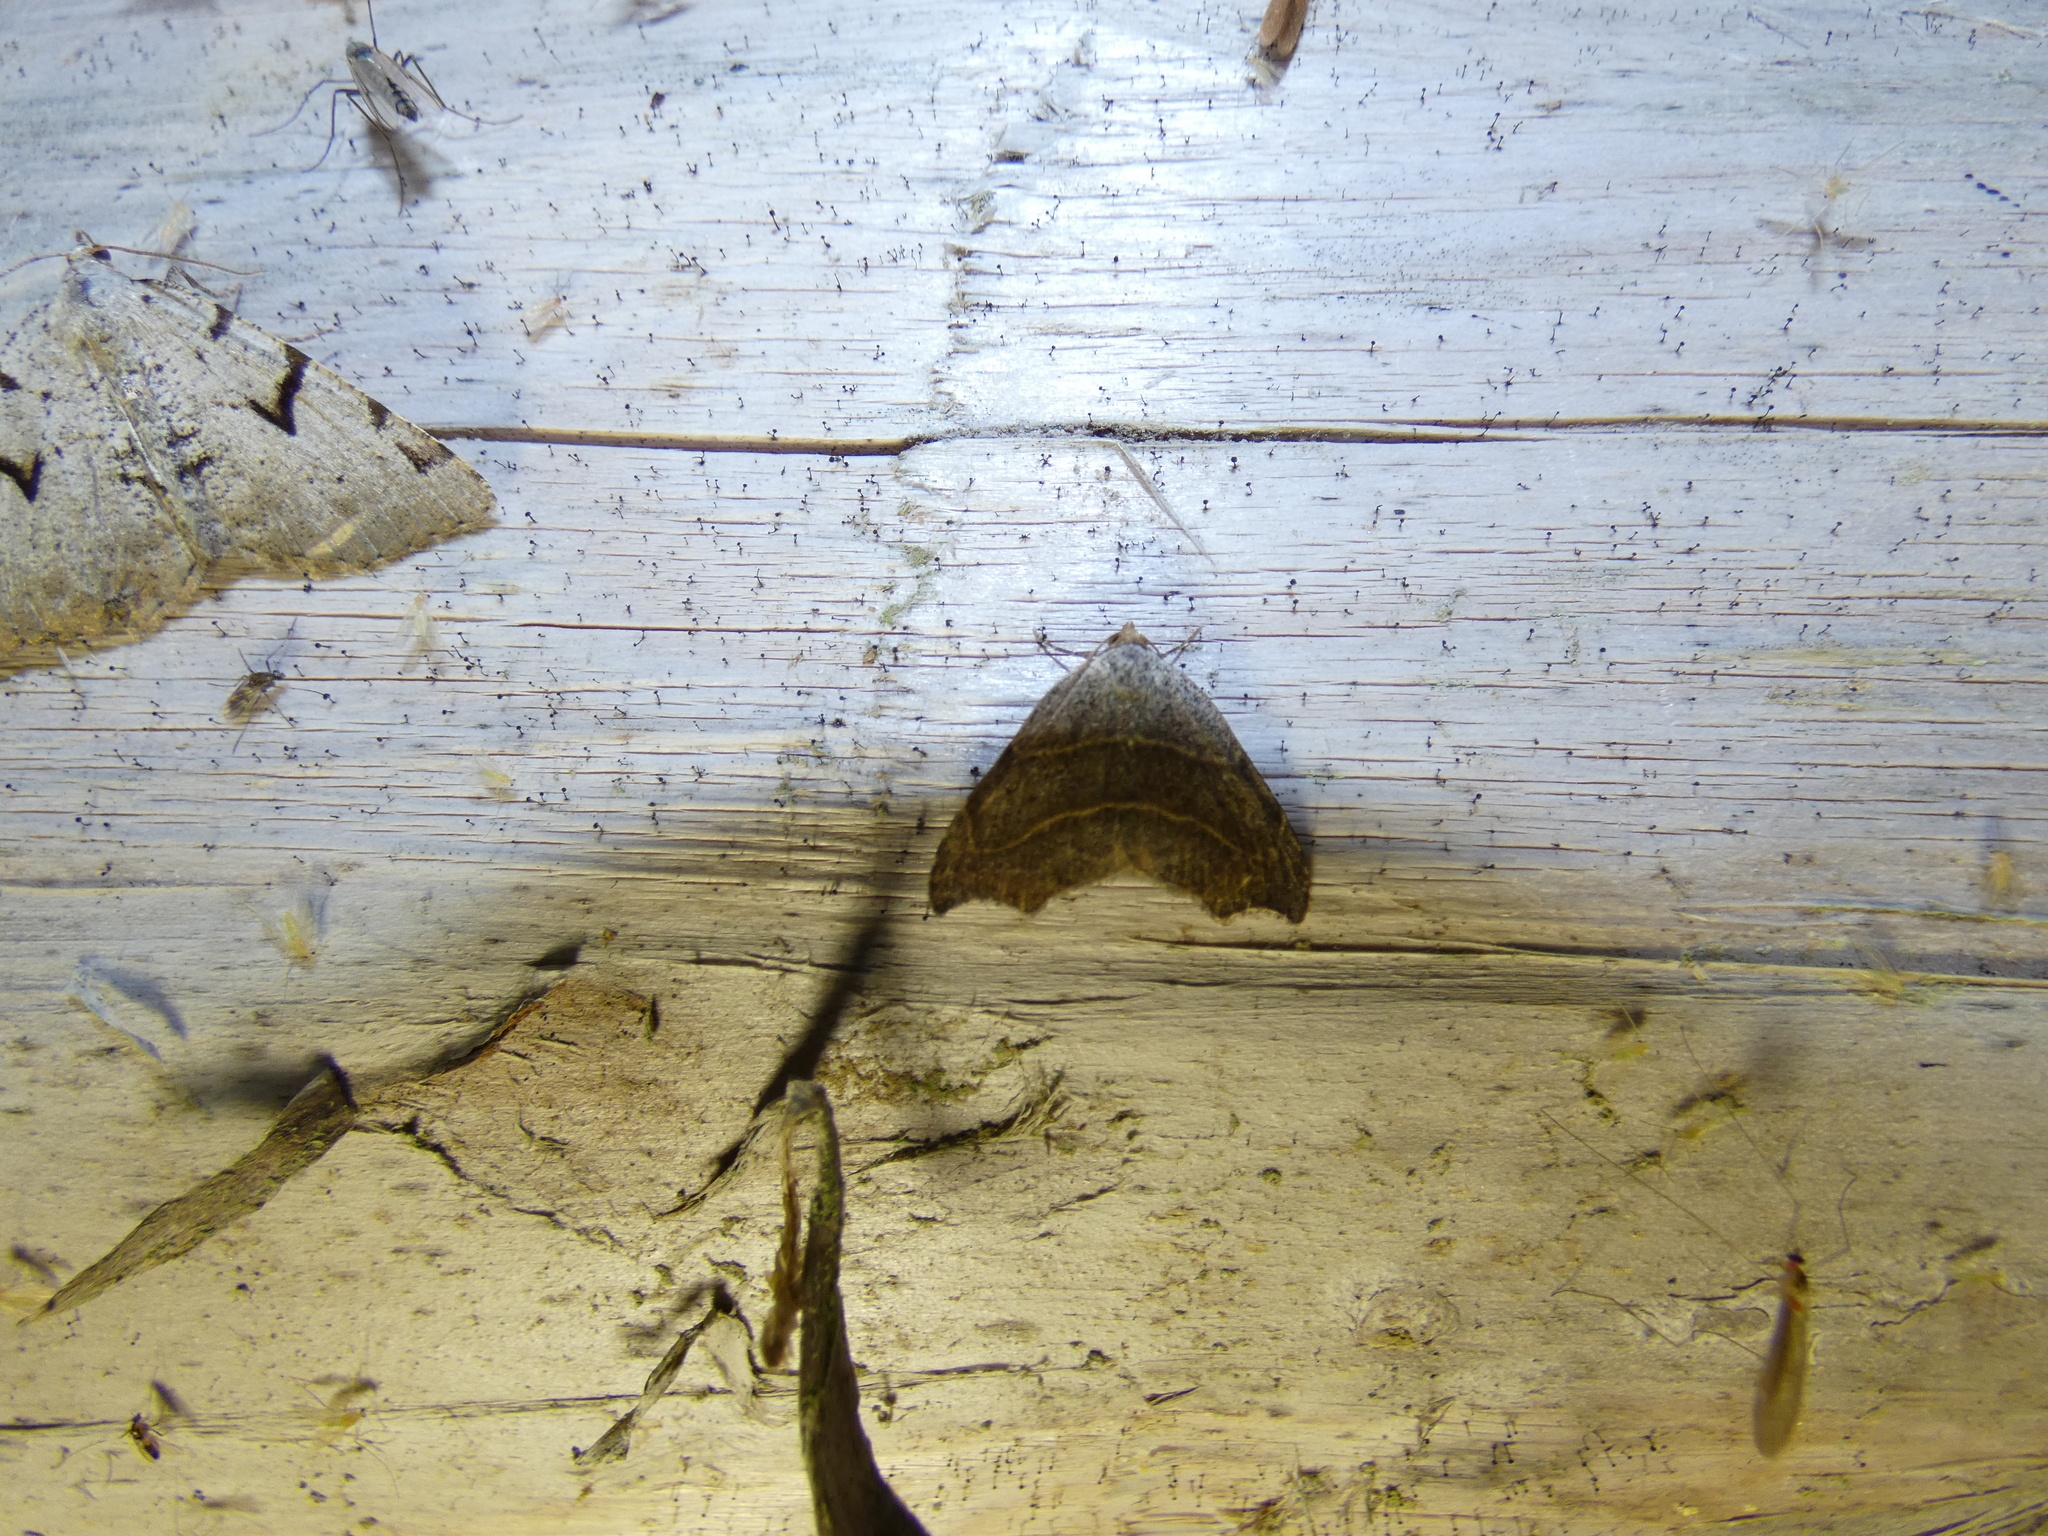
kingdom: Animalia
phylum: Arthropoda
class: Insecta
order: Lepidoptera
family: Erebidae
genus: Laspeyria
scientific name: Laspeyria flexula
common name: Beautiful hook-tip
